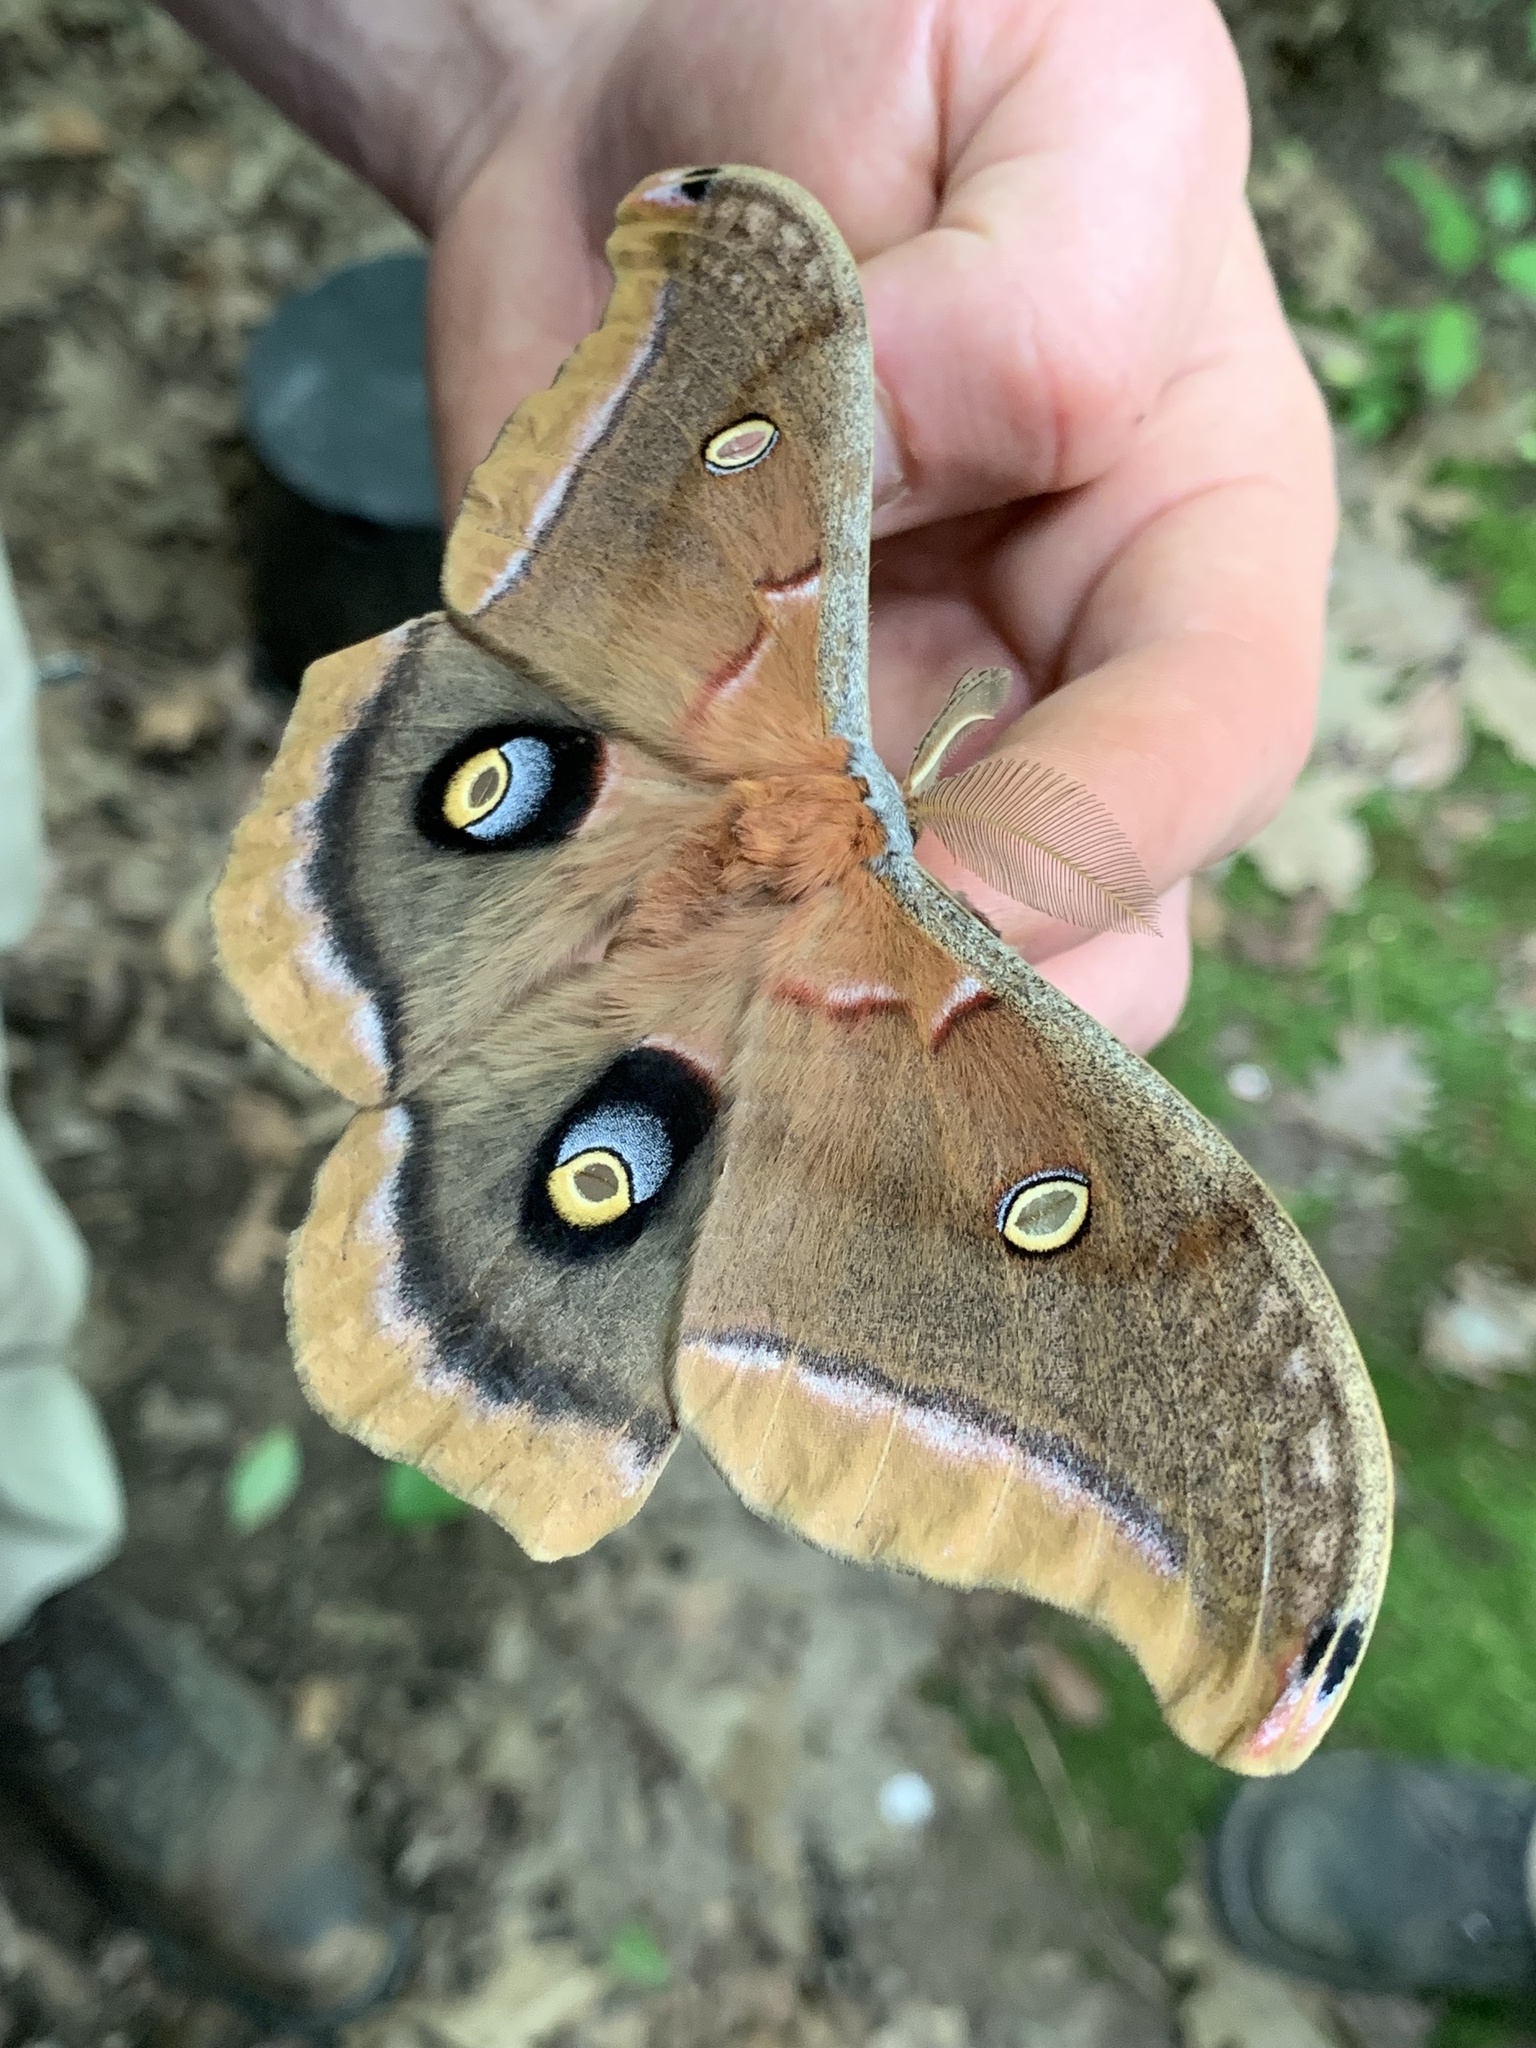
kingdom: Animalia
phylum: Arthropoda
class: Insecta
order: Lepidoptera
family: Saturniidae
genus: Antheraea
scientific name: Antheraea polyphemus
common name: Polyphemus moth
